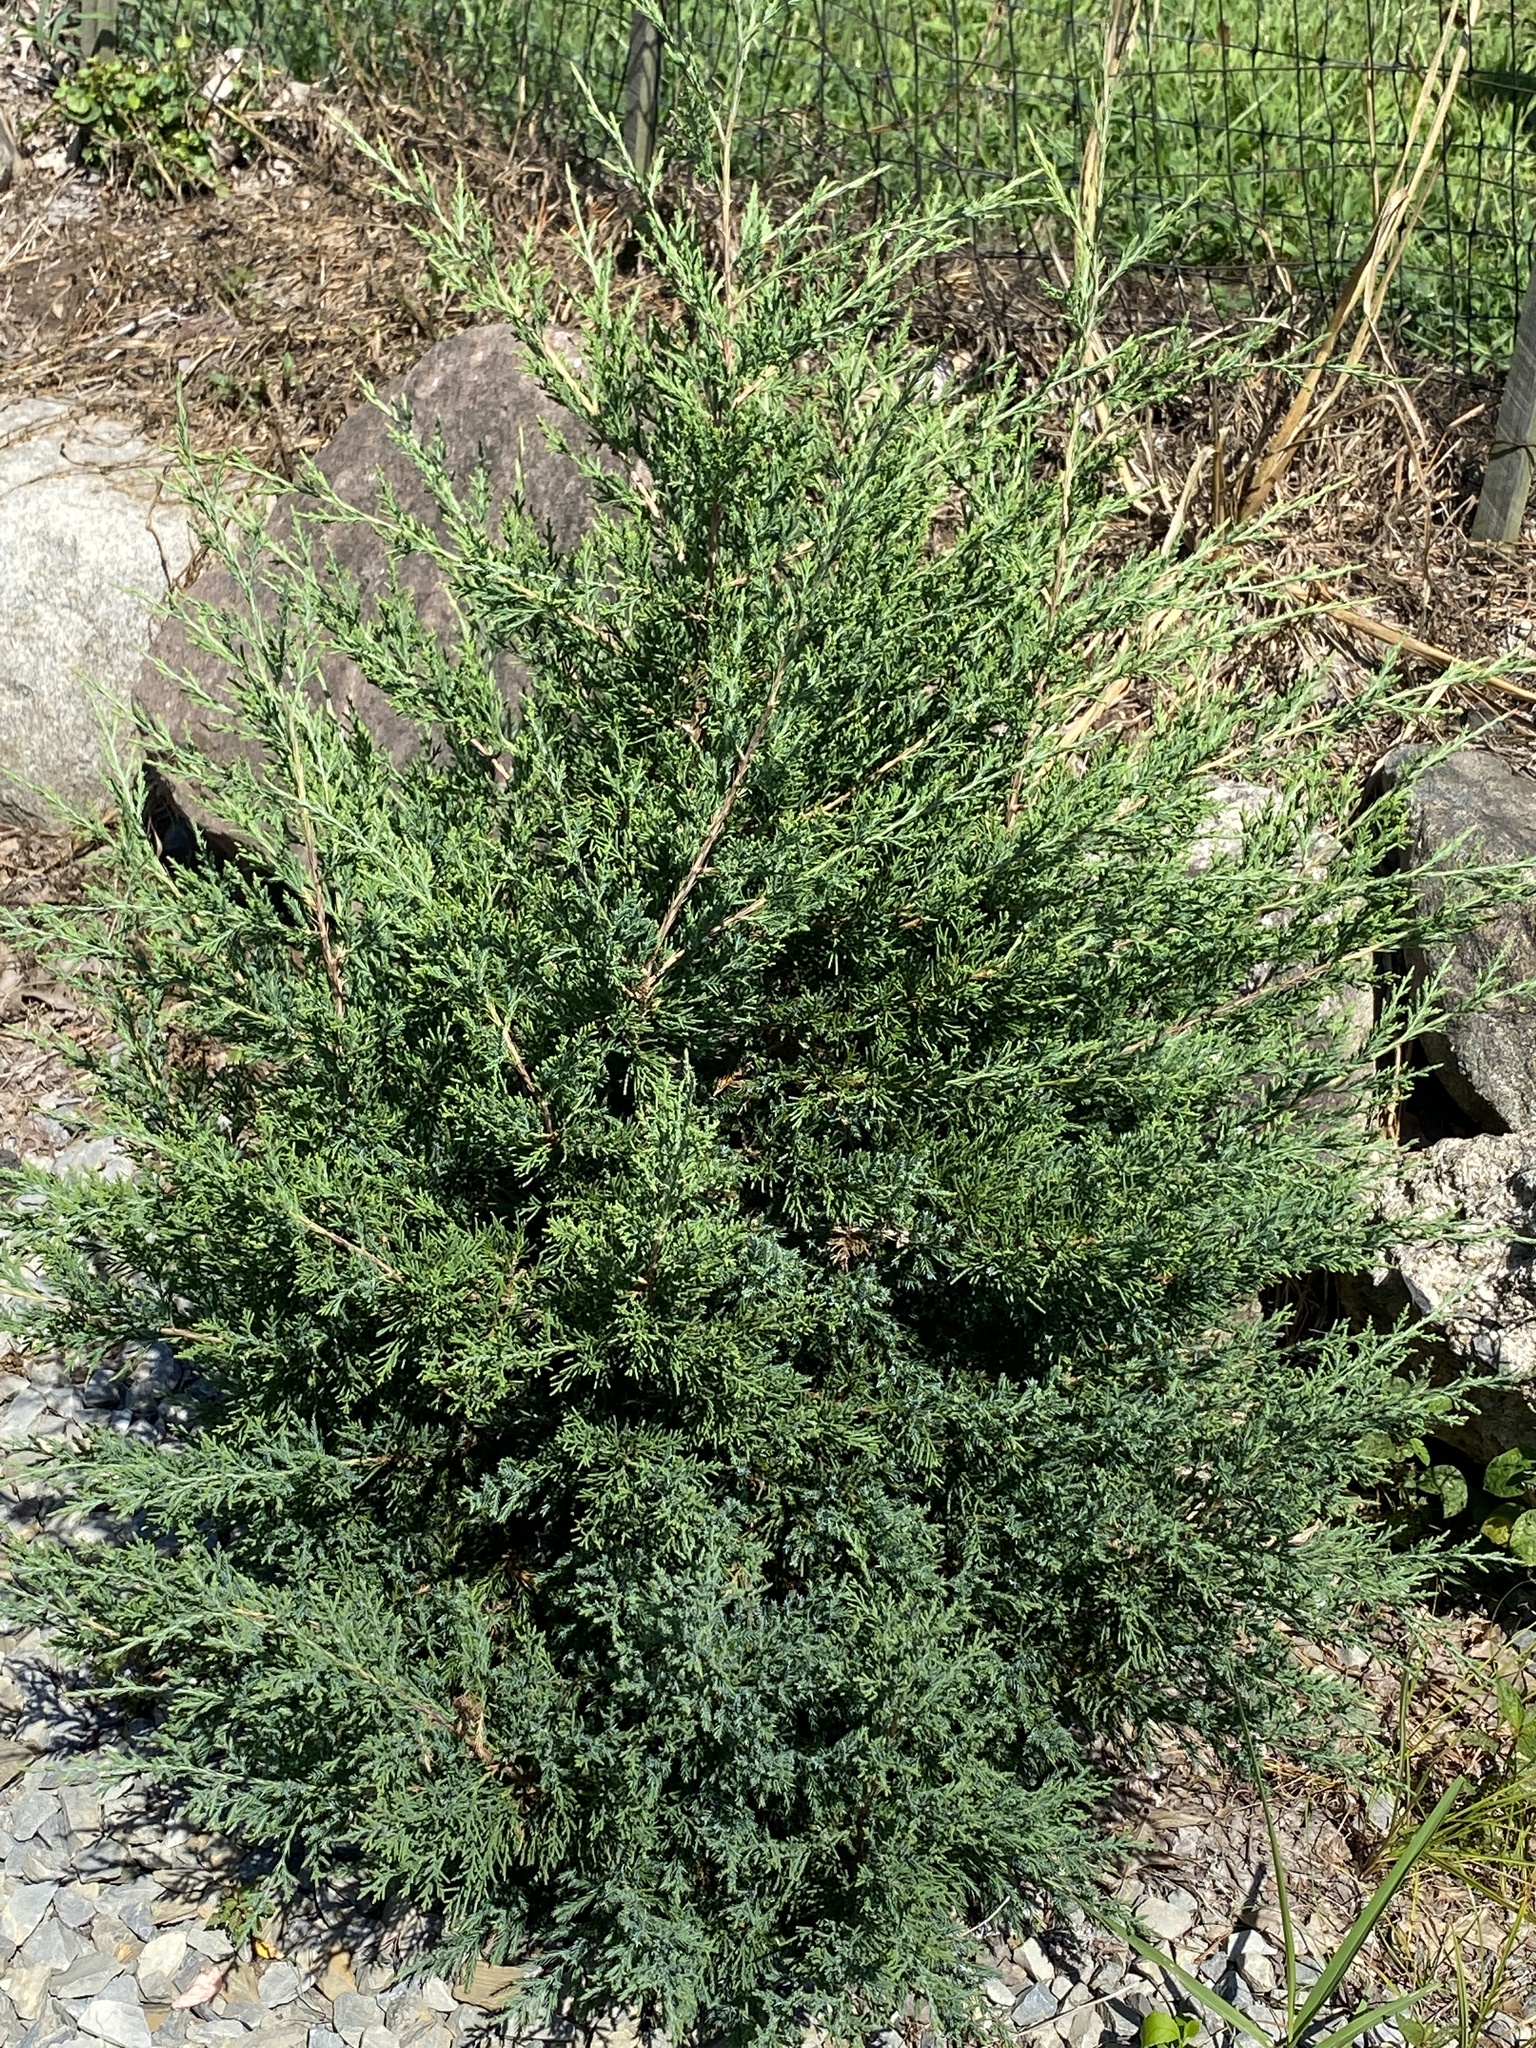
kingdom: Plantae
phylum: Tracheophyta
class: Pinopsida
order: Pinales
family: Cupressaceae
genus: Juniperus
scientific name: Juniperus virginiana
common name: Red juniper
